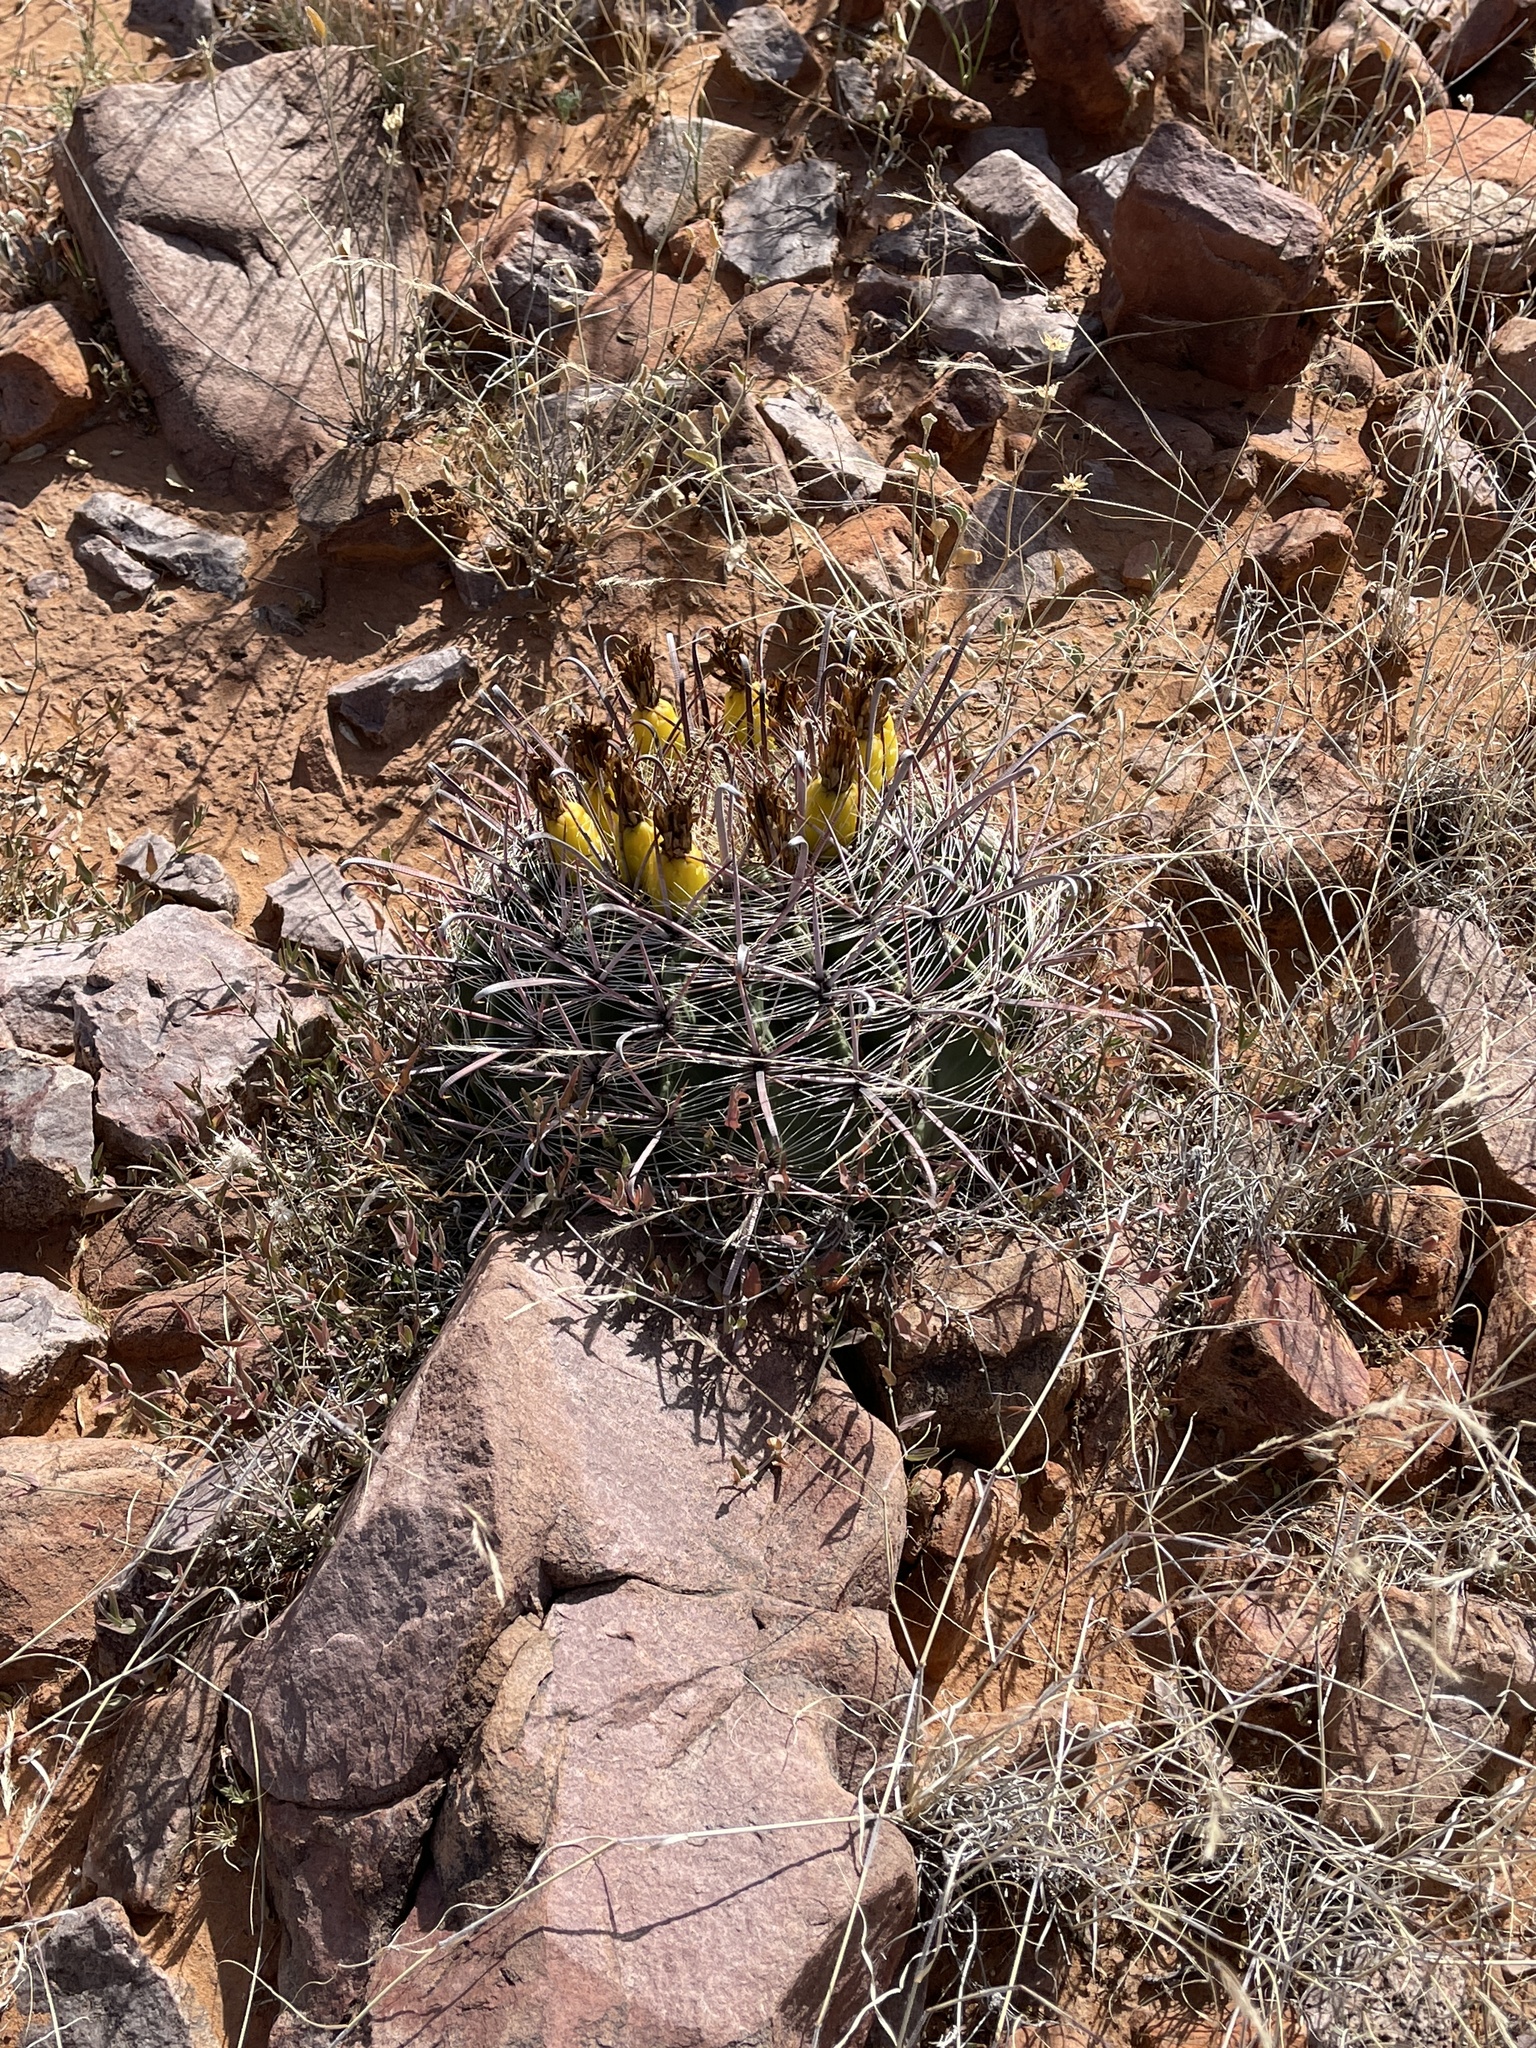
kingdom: Plantae
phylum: Tracheophyta
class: Magnoliopsida
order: Caryophyllales
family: Cactaceae
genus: Ferocactus
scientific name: Ferocactus wislizeni
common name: Candy barrel cactus
